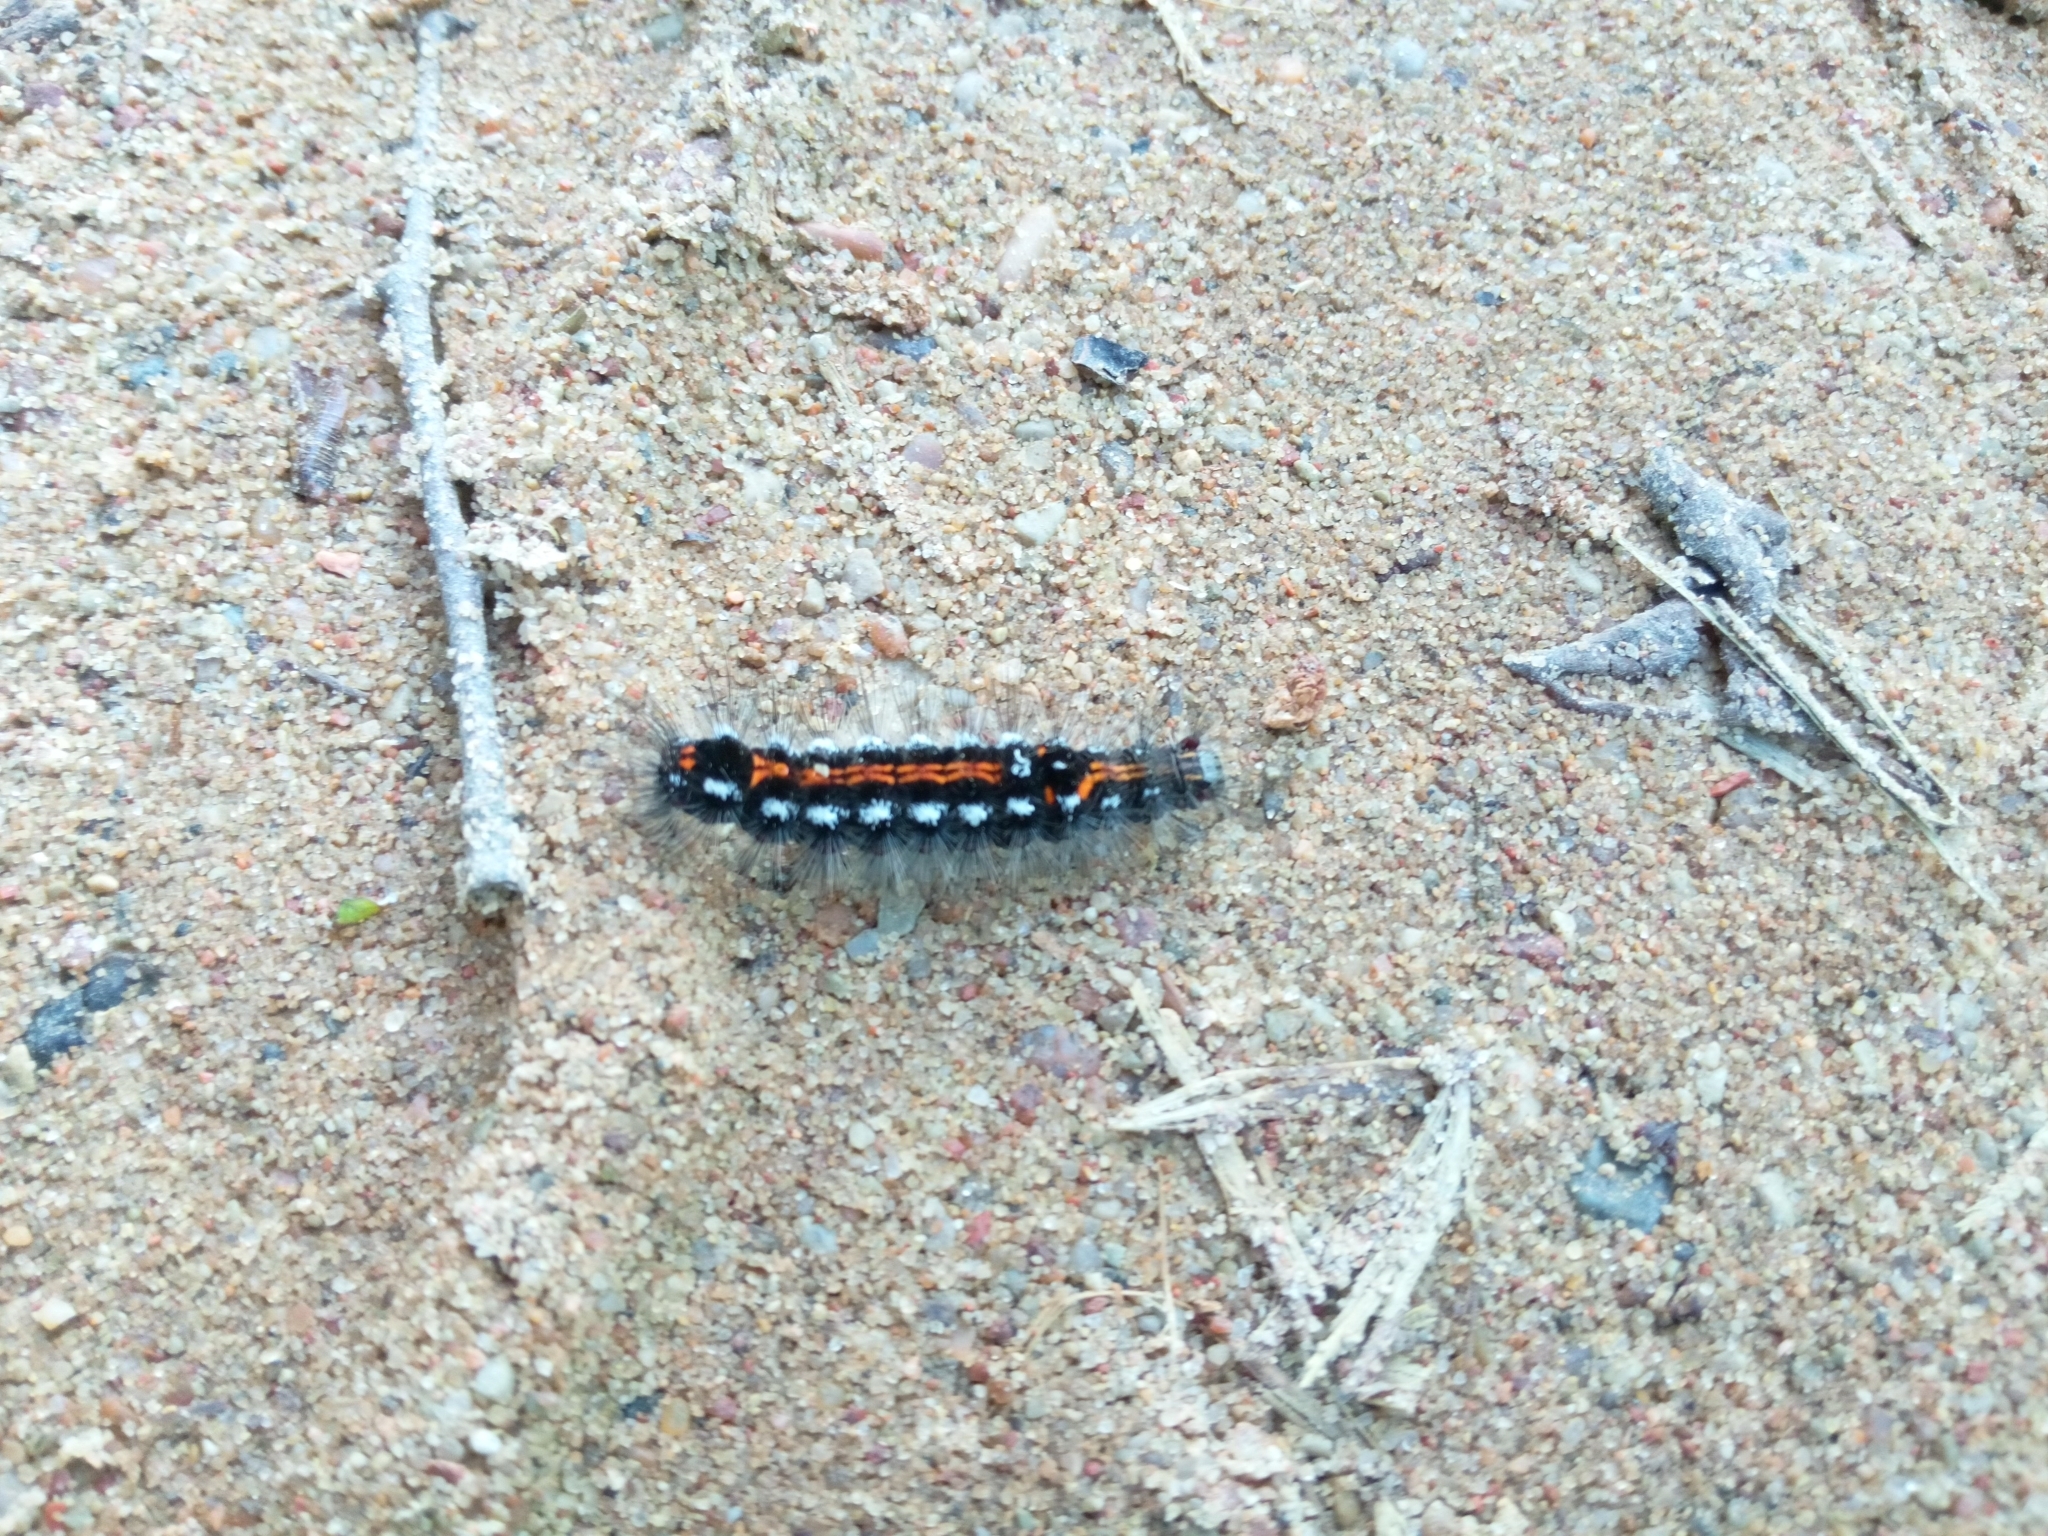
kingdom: Animalia
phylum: Arthropoda
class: Insecta
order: Lepidoptera
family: Erebidae
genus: Sphrageidus
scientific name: Sphrageidus similis
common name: Yellow-tail
